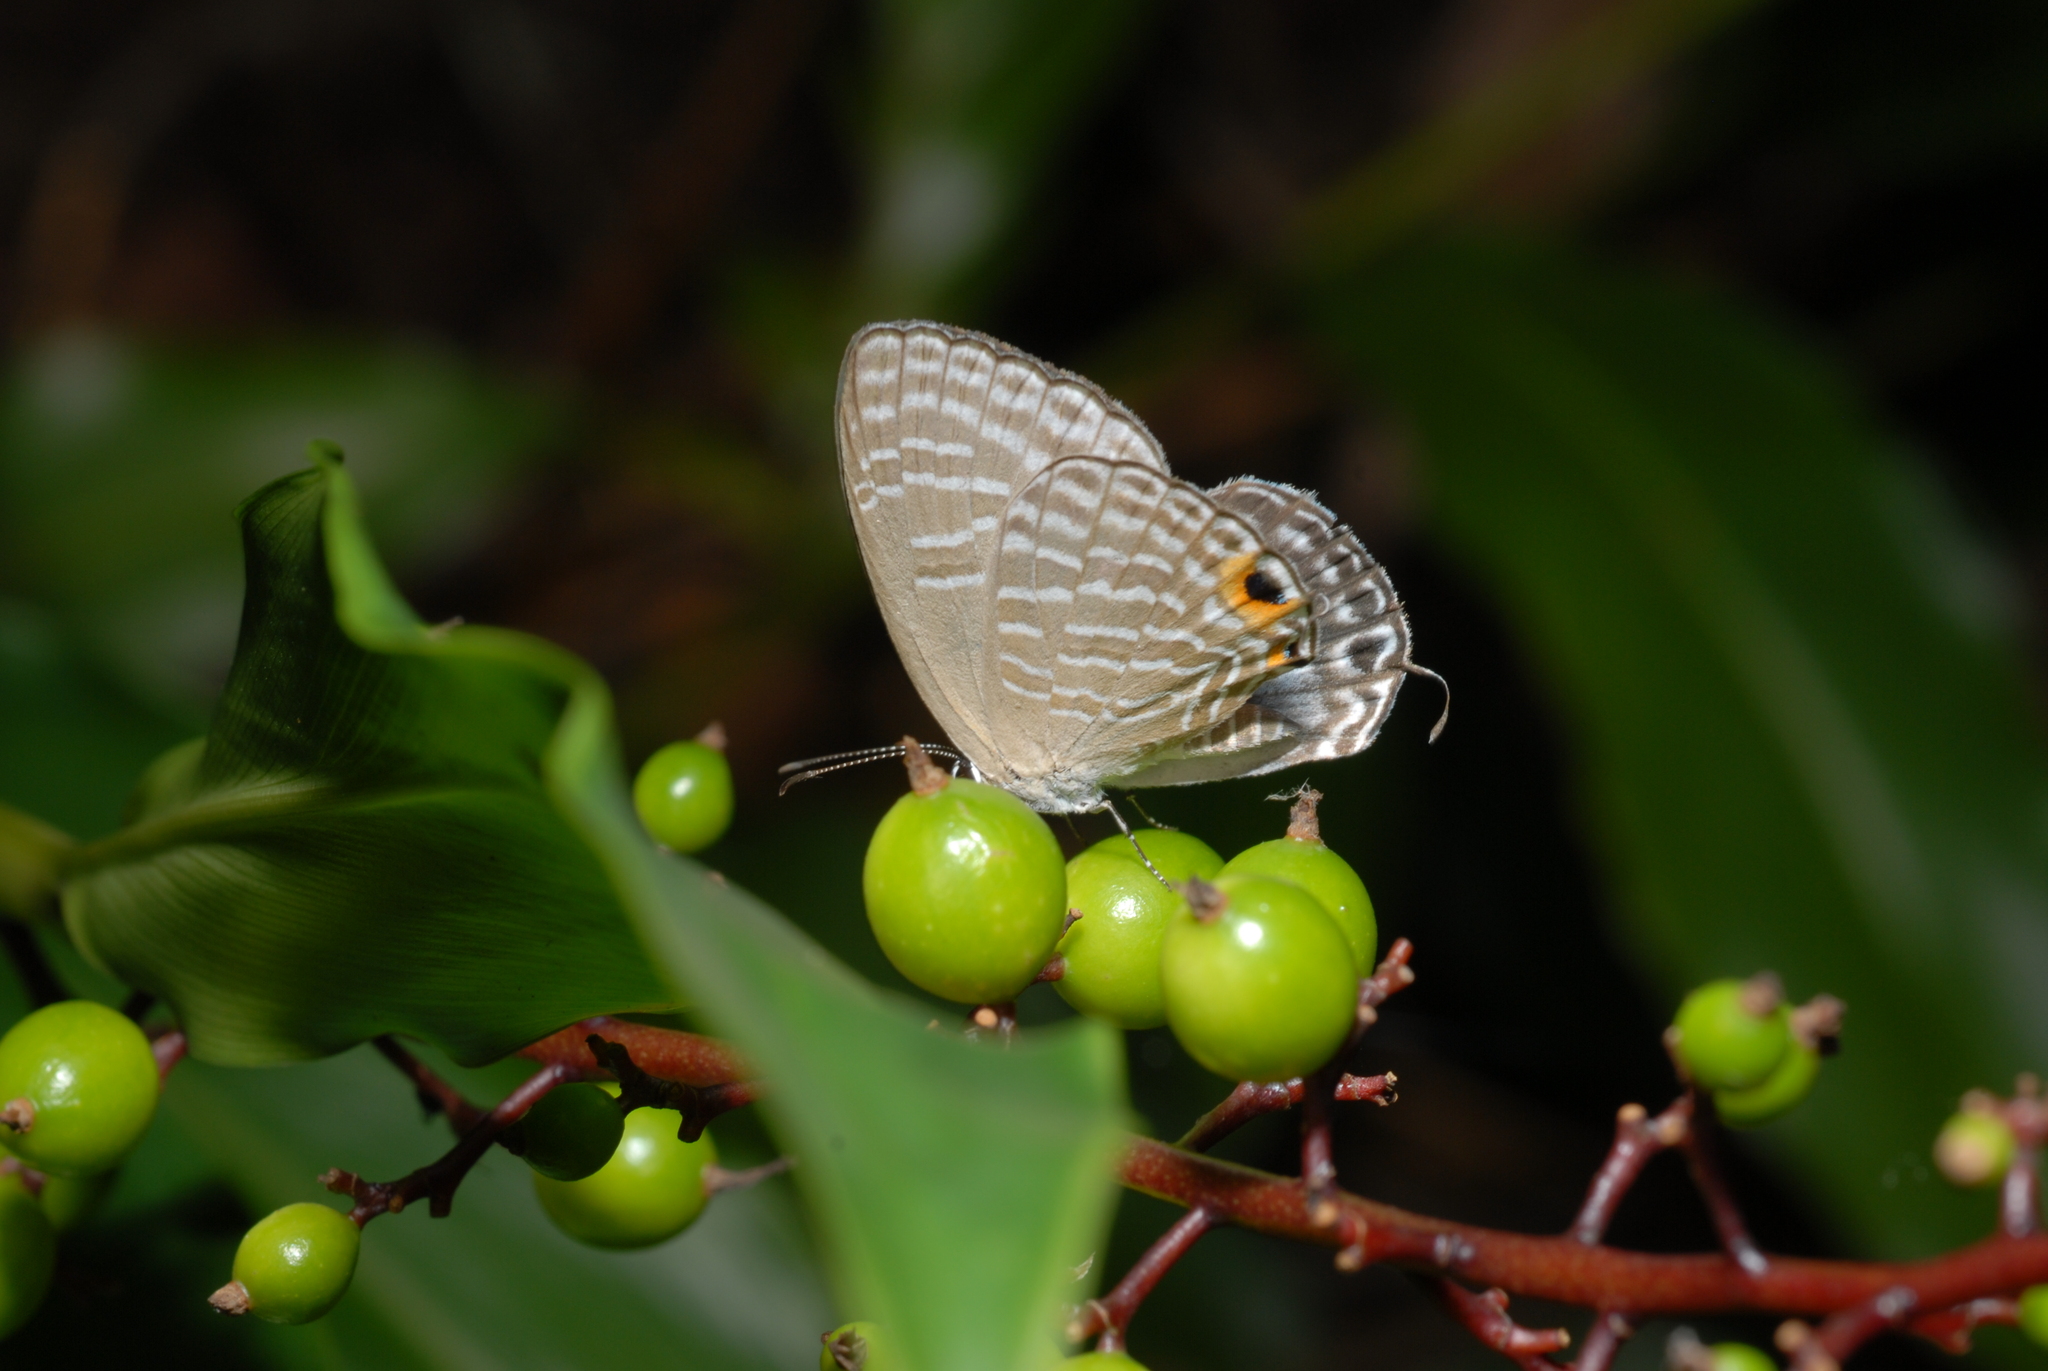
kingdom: Animalia
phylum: Arthropoda
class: Insecta
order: Lepidoptera
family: Lycaenidae
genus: Jamides
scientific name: Jamides alecto
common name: Metallic cerulean
